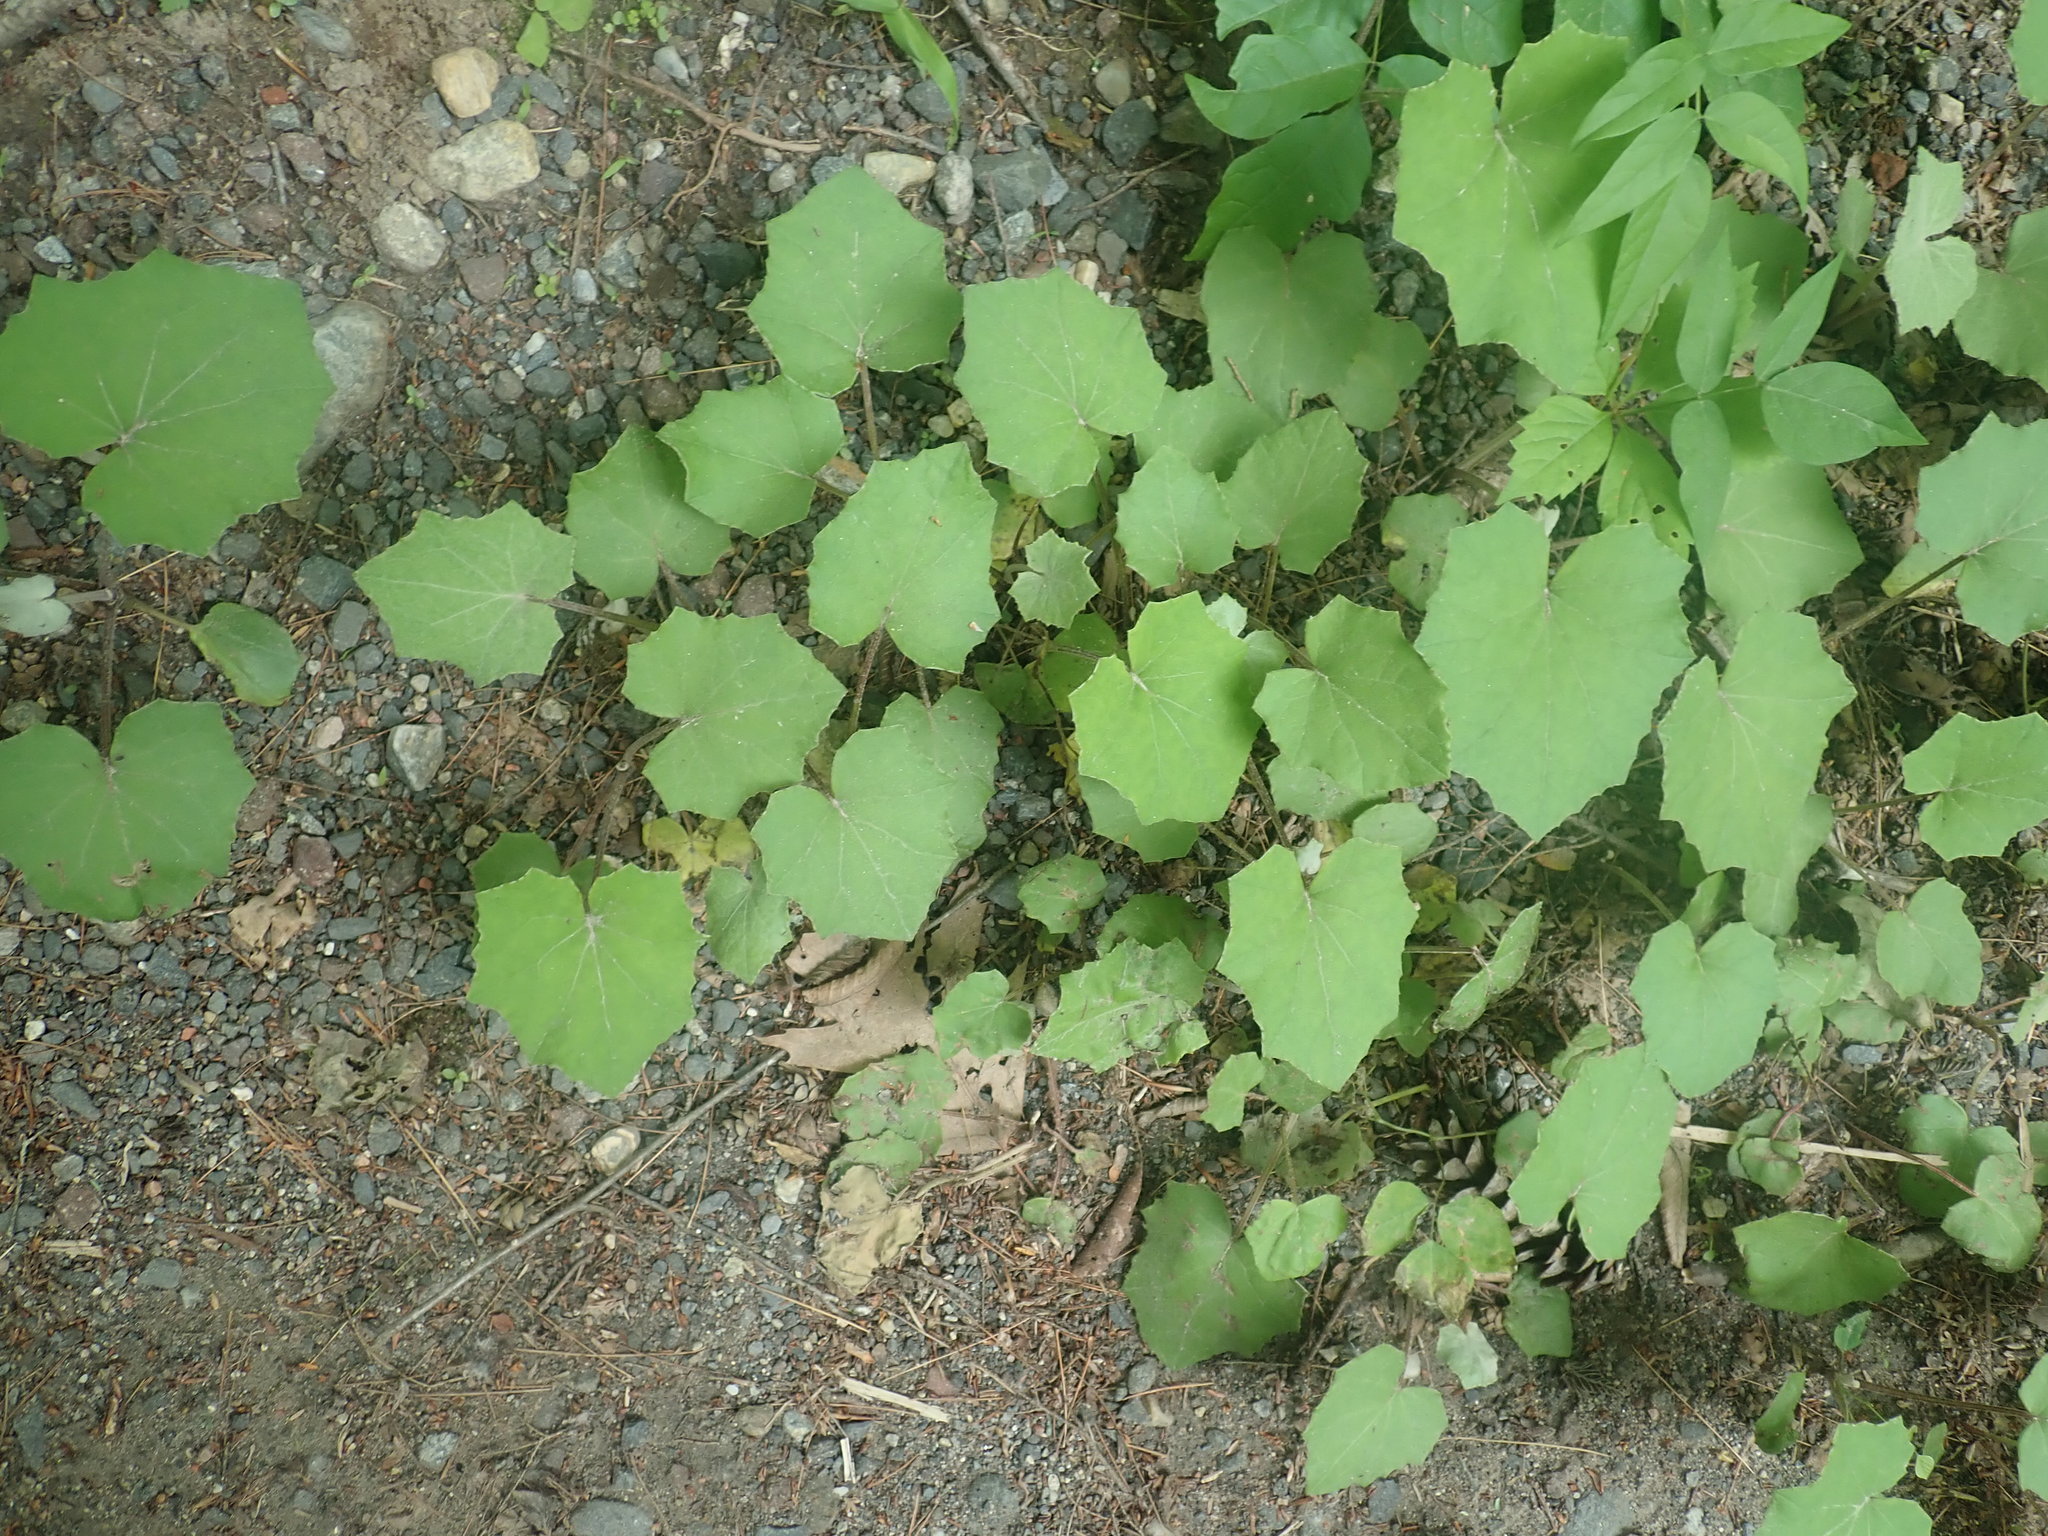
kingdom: Plantae
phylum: Tracheophyta
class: Magnoliopsida
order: Asterales
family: Asteraceae
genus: Tussilago
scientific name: Tussilago farfara
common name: Coltsfoot
